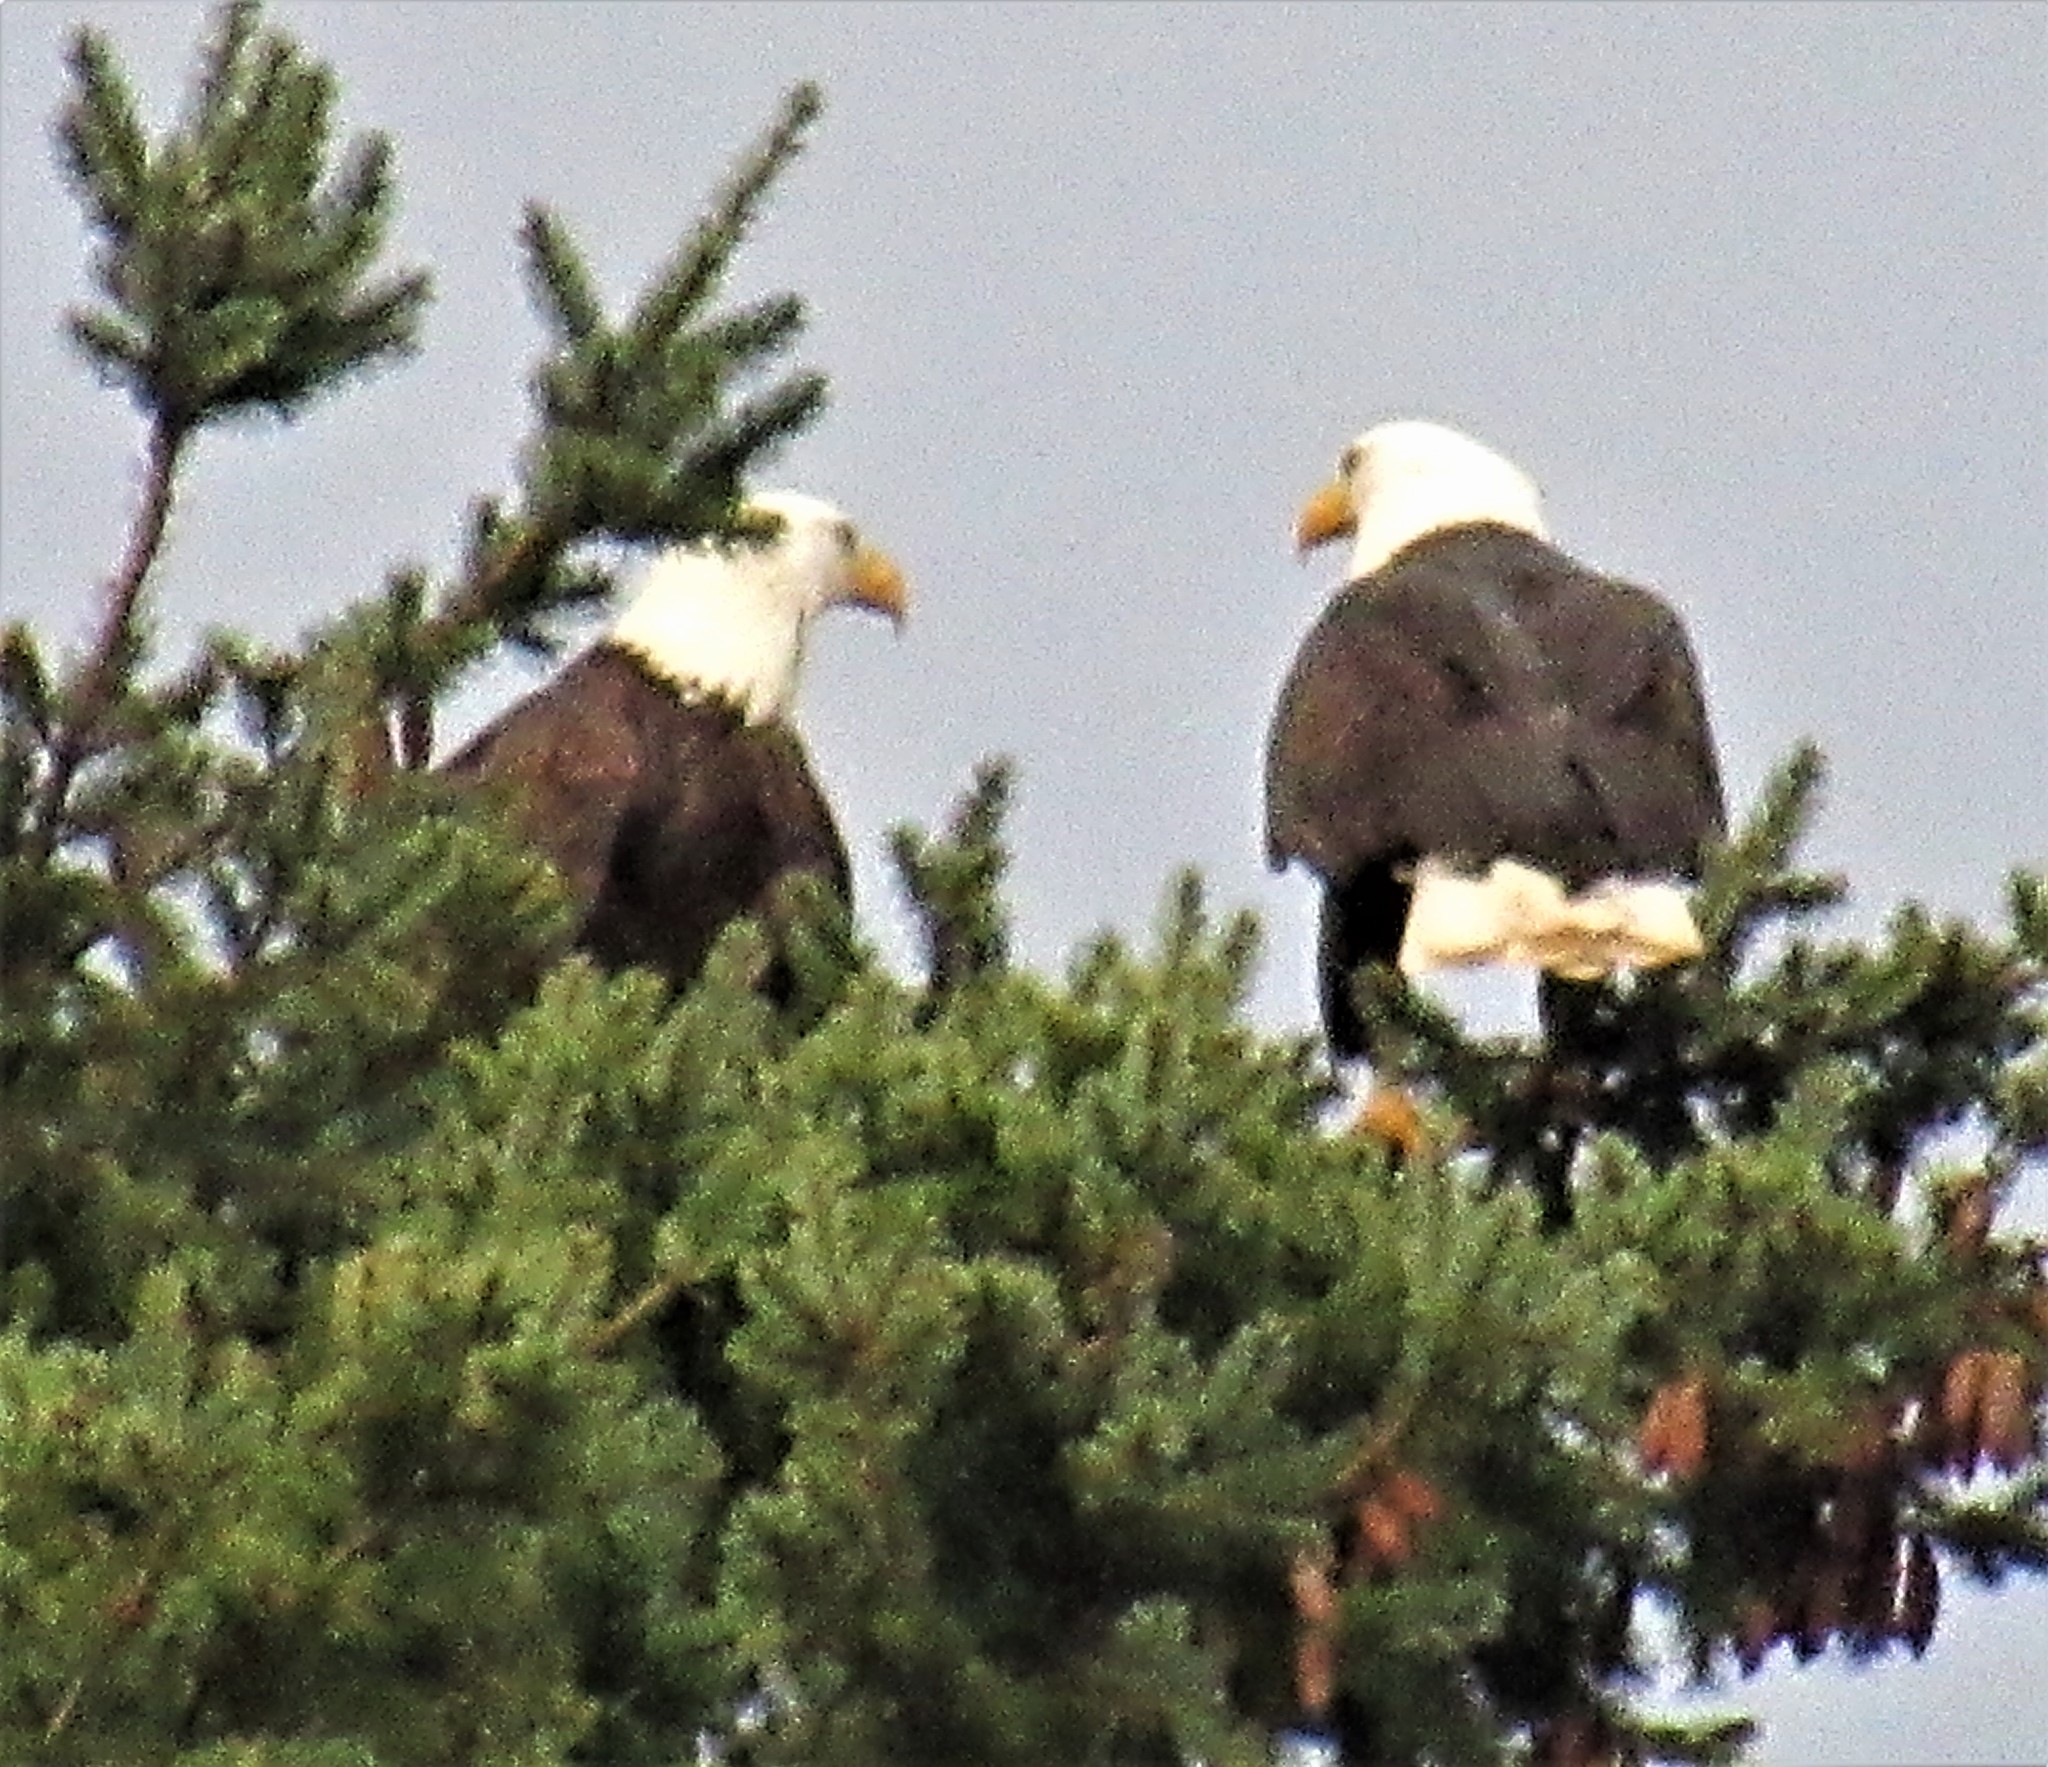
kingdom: Animalia
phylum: Chordata
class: Aves
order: Accipitriformes
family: Accipitridae
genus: Haliaeetus
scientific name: Haliaeetus leucocephalus
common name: Bald eagle
